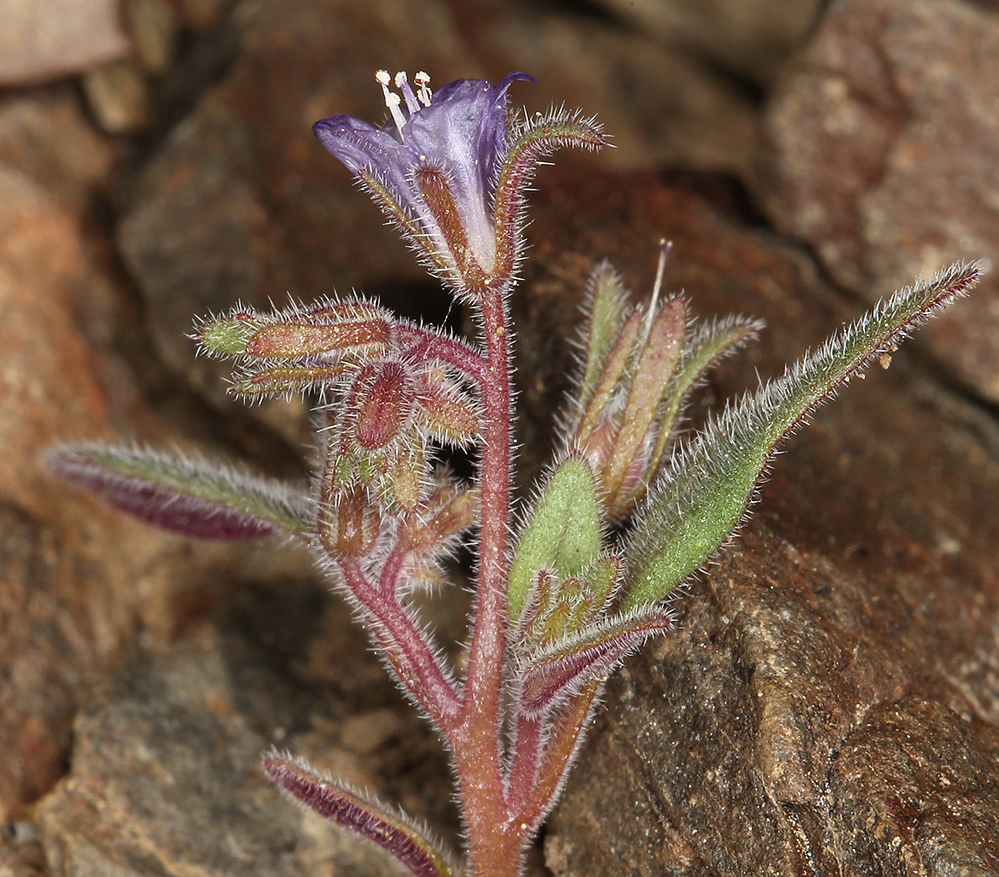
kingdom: Plantae
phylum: Tracheophyta
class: Magnoliopsida
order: Boraginales
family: Hydrophyllaceae
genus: Phacelia
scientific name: Phacelia austromontana
